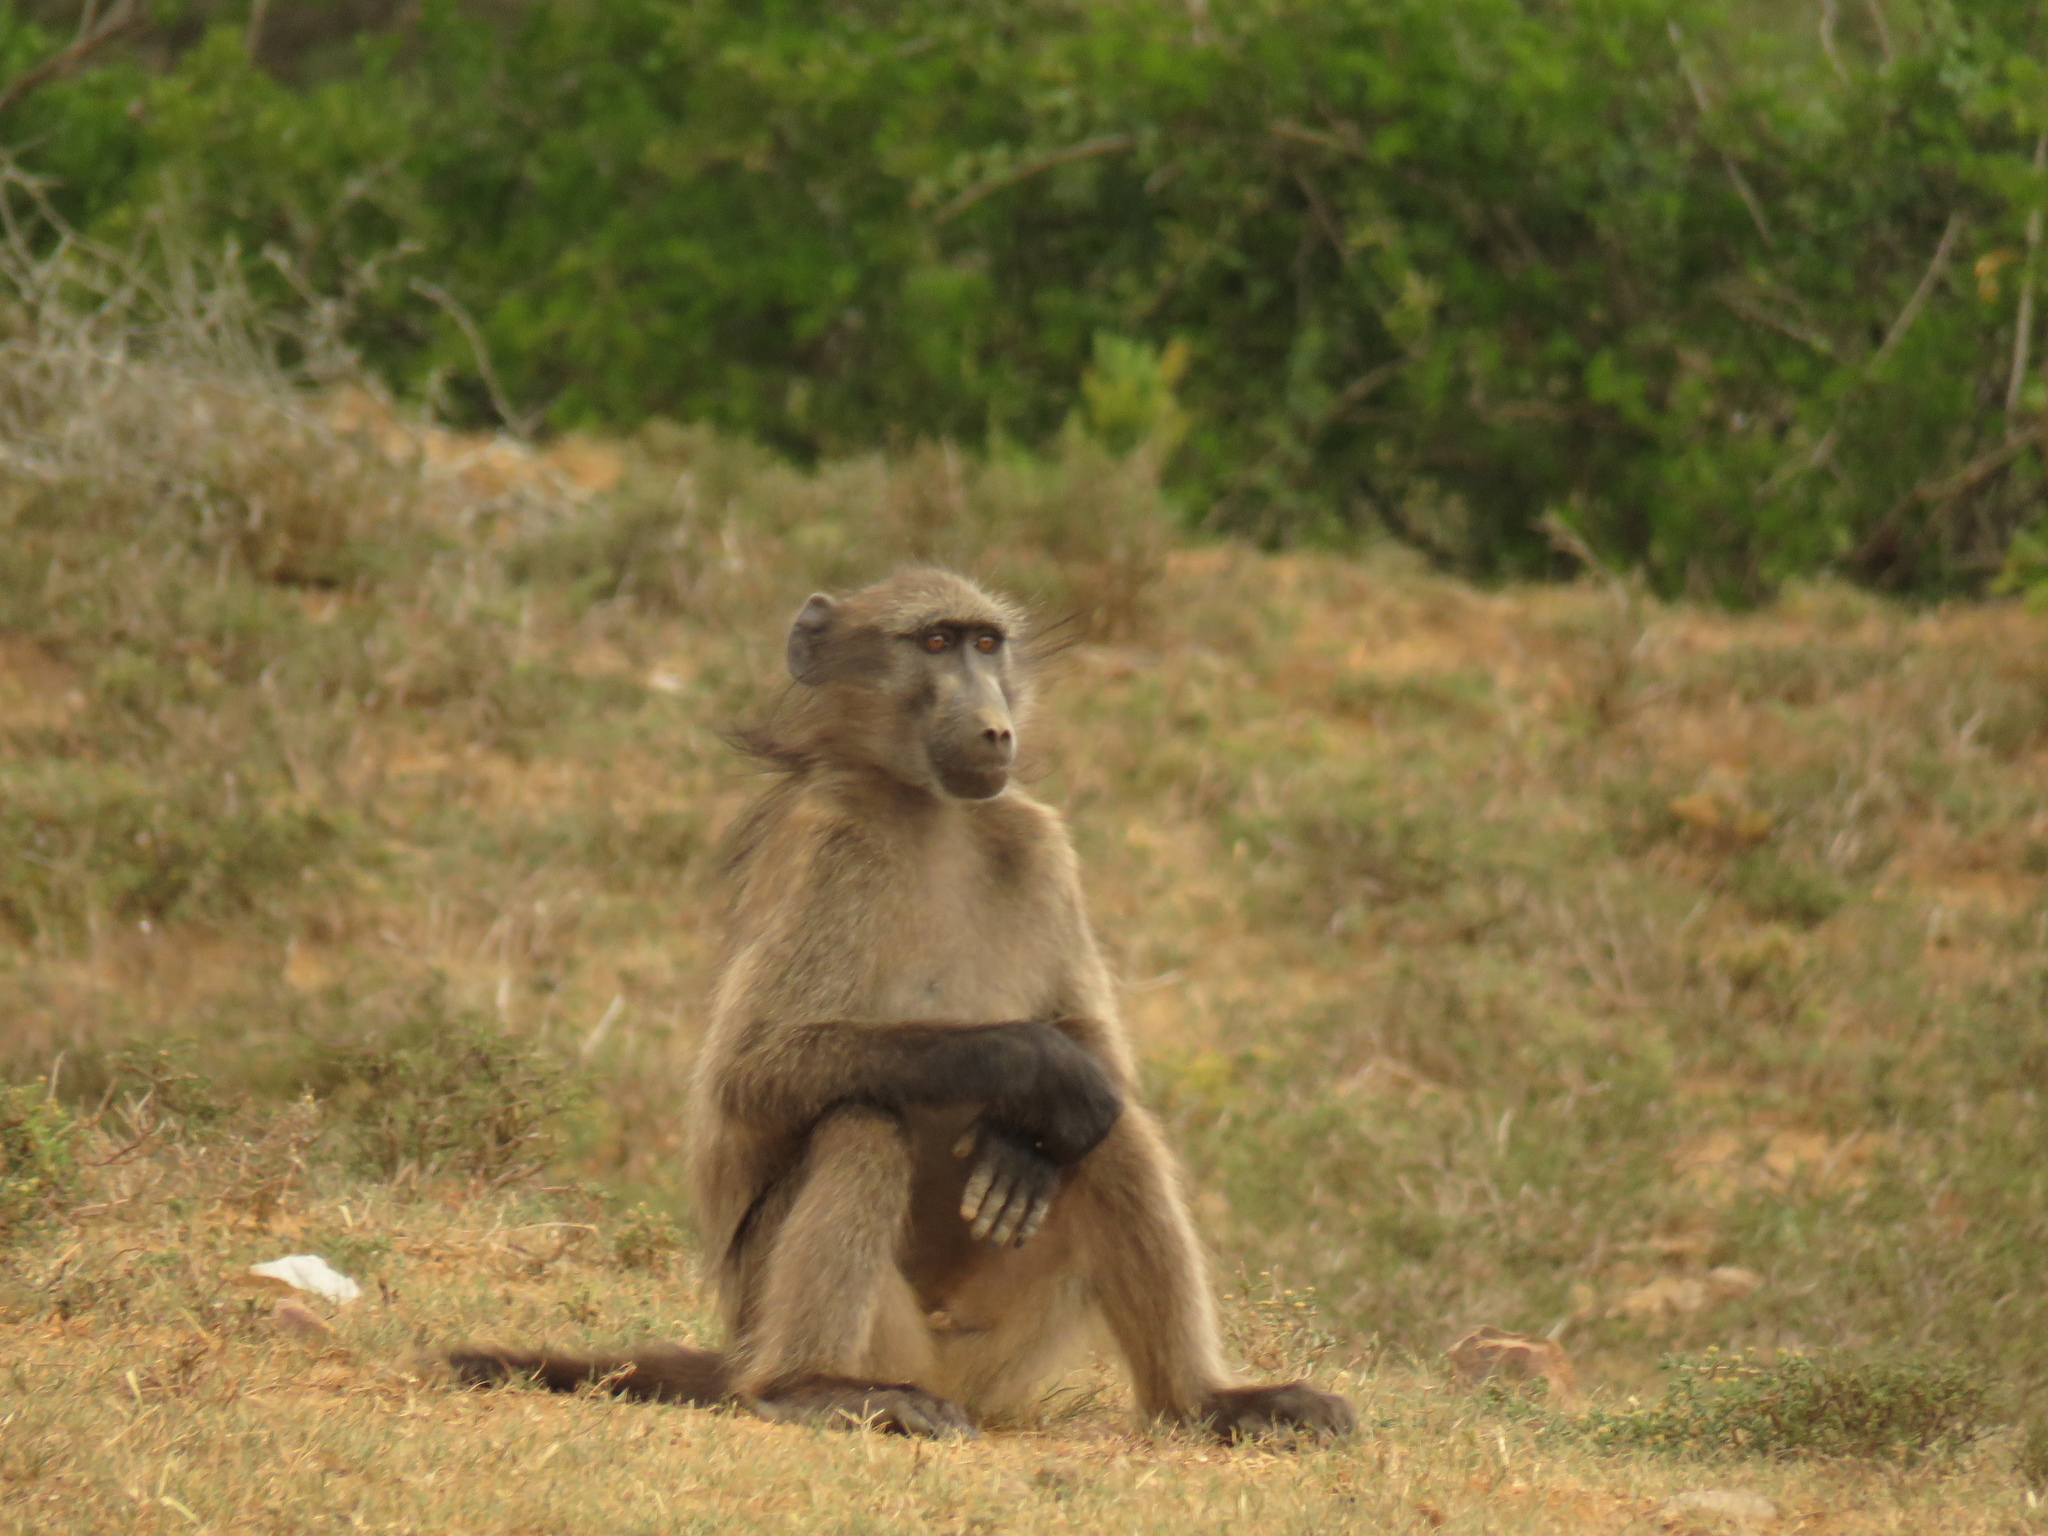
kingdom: Animalia
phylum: Chordata
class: Mammalia
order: Primates
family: Cercopithecidae
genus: Papio
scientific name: Papio ursinus
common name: Chacma baboon
